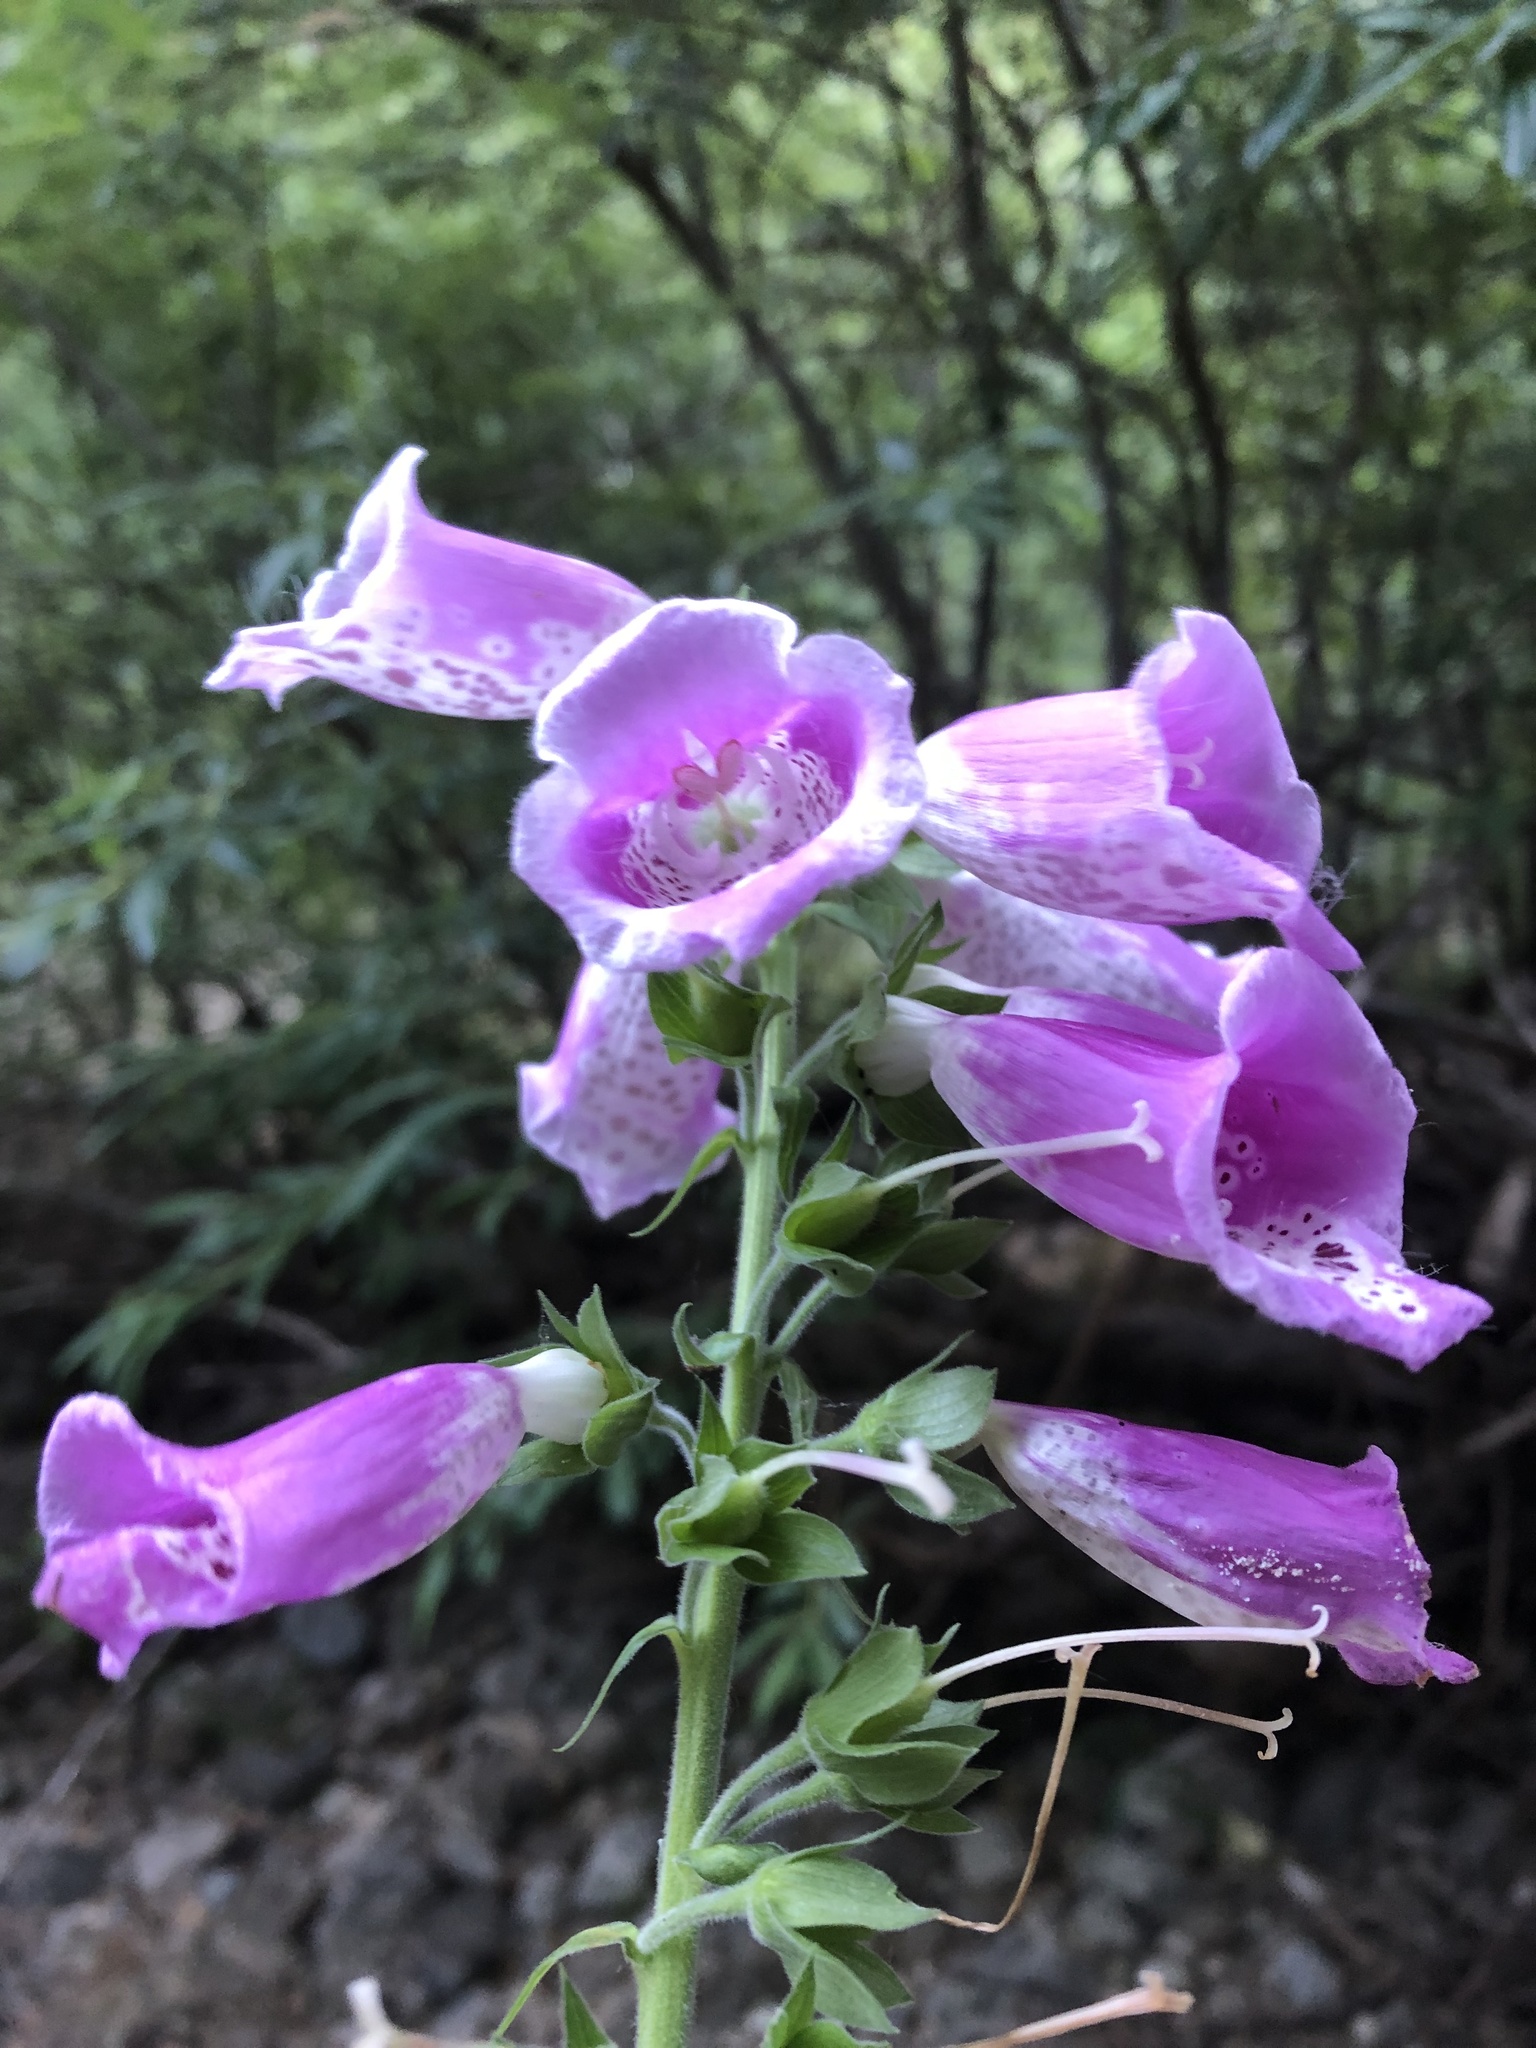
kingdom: Plantae
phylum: Tracheophyta
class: Magnoliopsida
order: Lamiales
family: Plantaginaceae
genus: Digitalis
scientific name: Digitalis purpurea
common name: Foxglove
